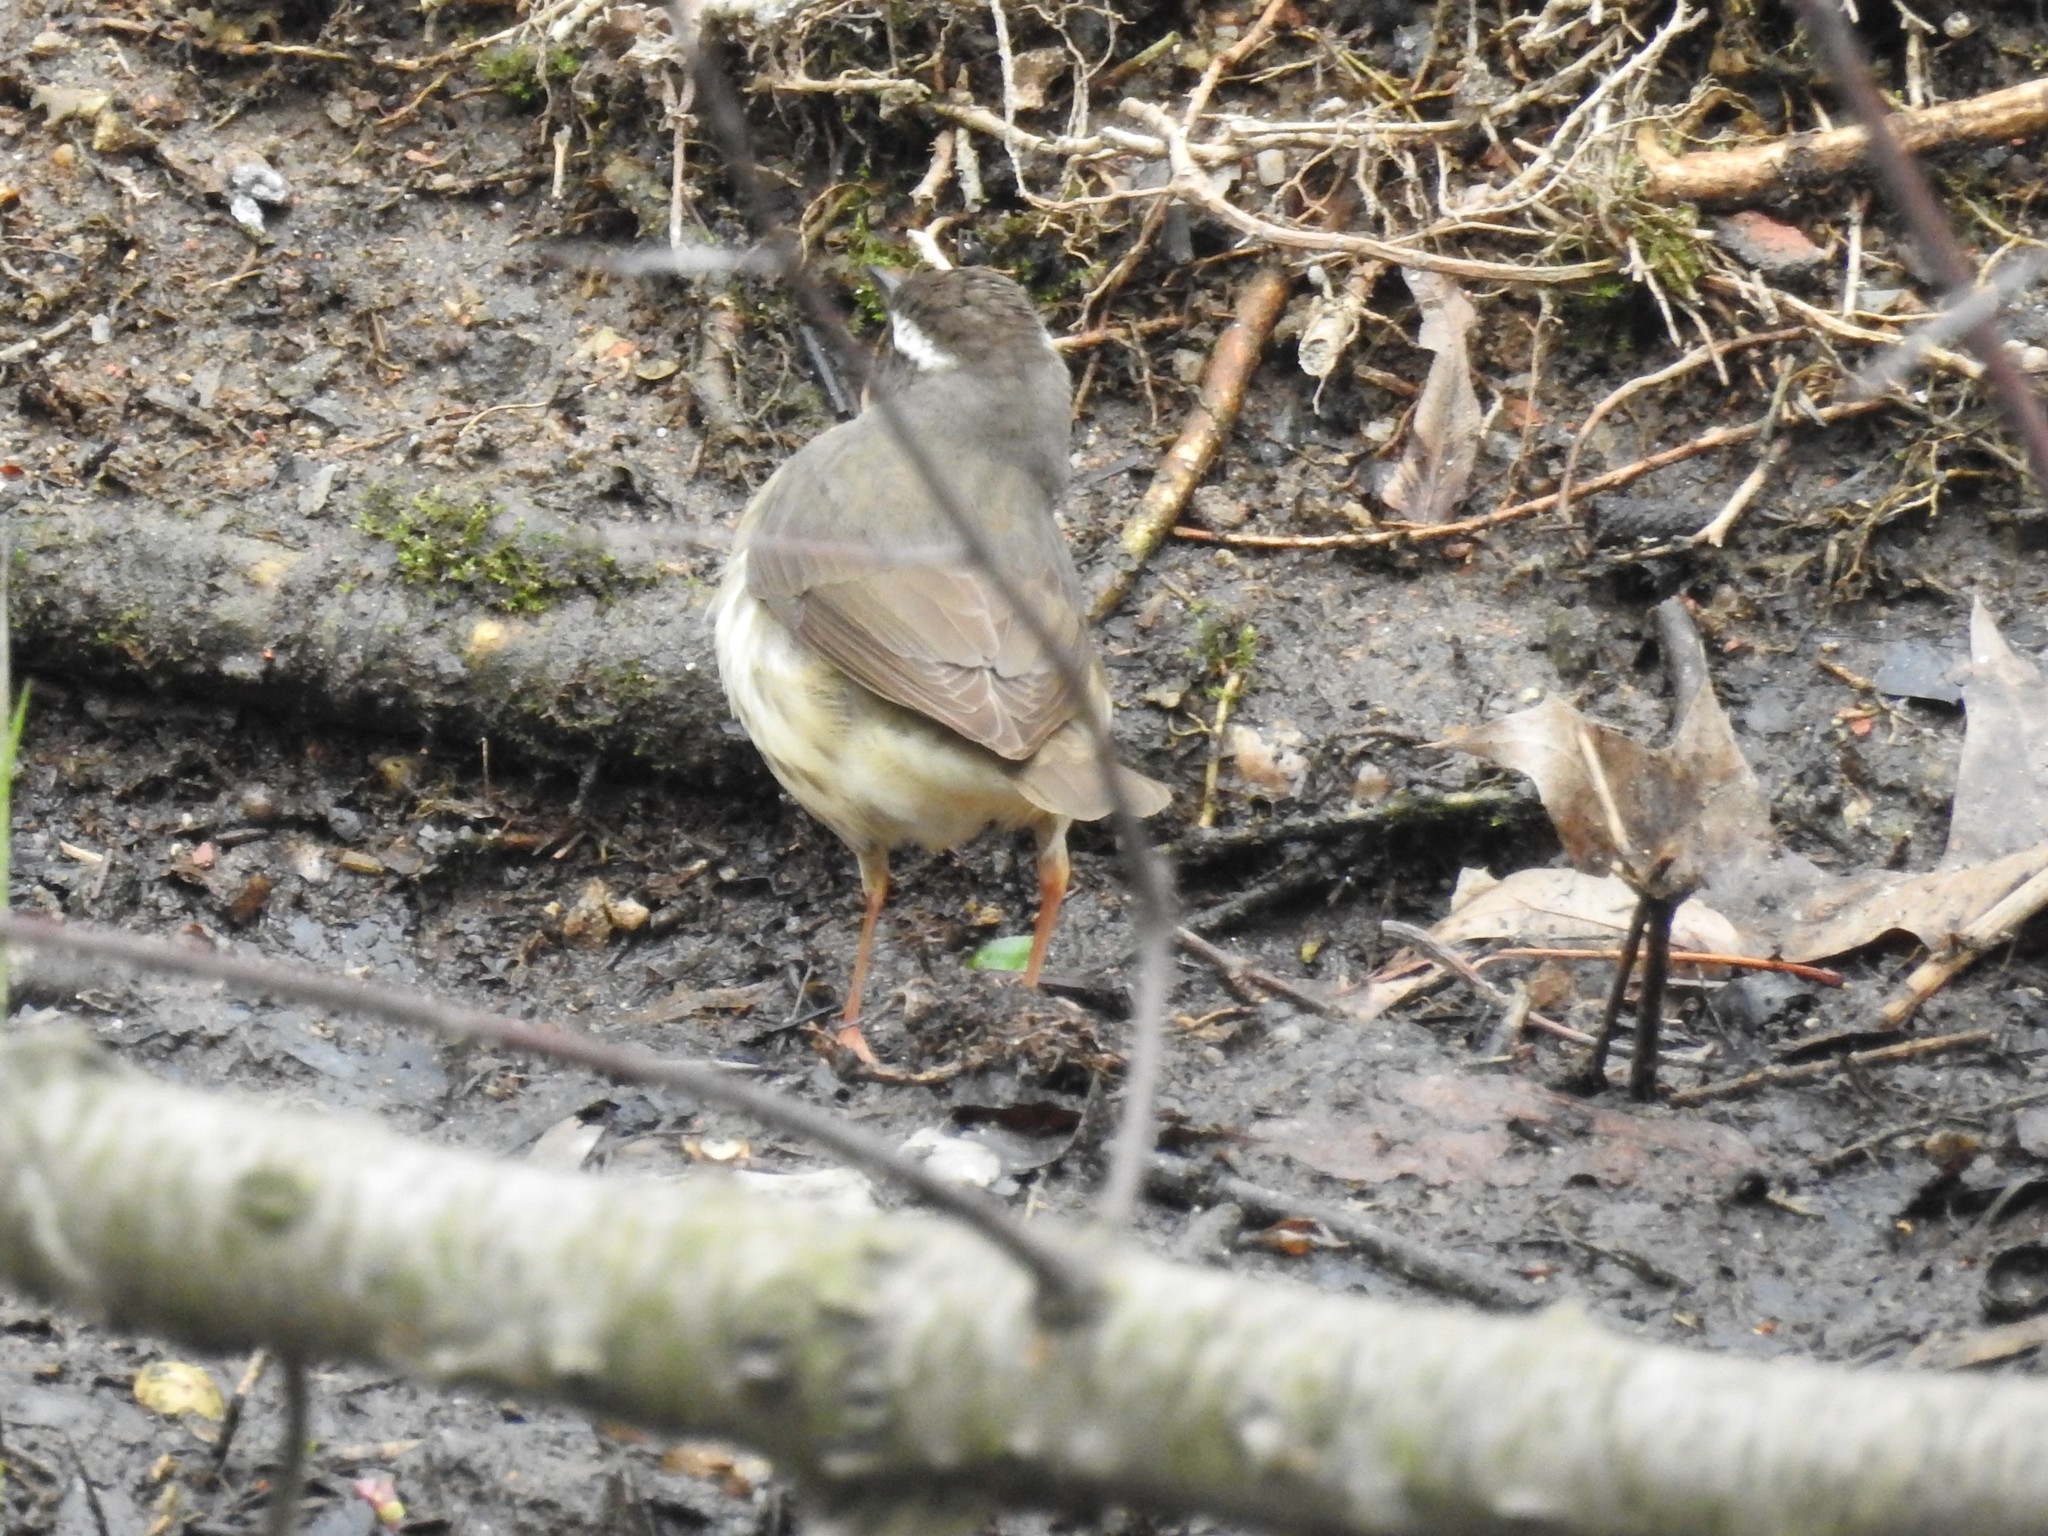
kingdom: Animalia
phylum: Chordata
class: Aves
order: Passeriformes
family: Parulidae
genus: Parkesia
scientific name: Parkesia motacilla
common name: Louisiana waterthrush
